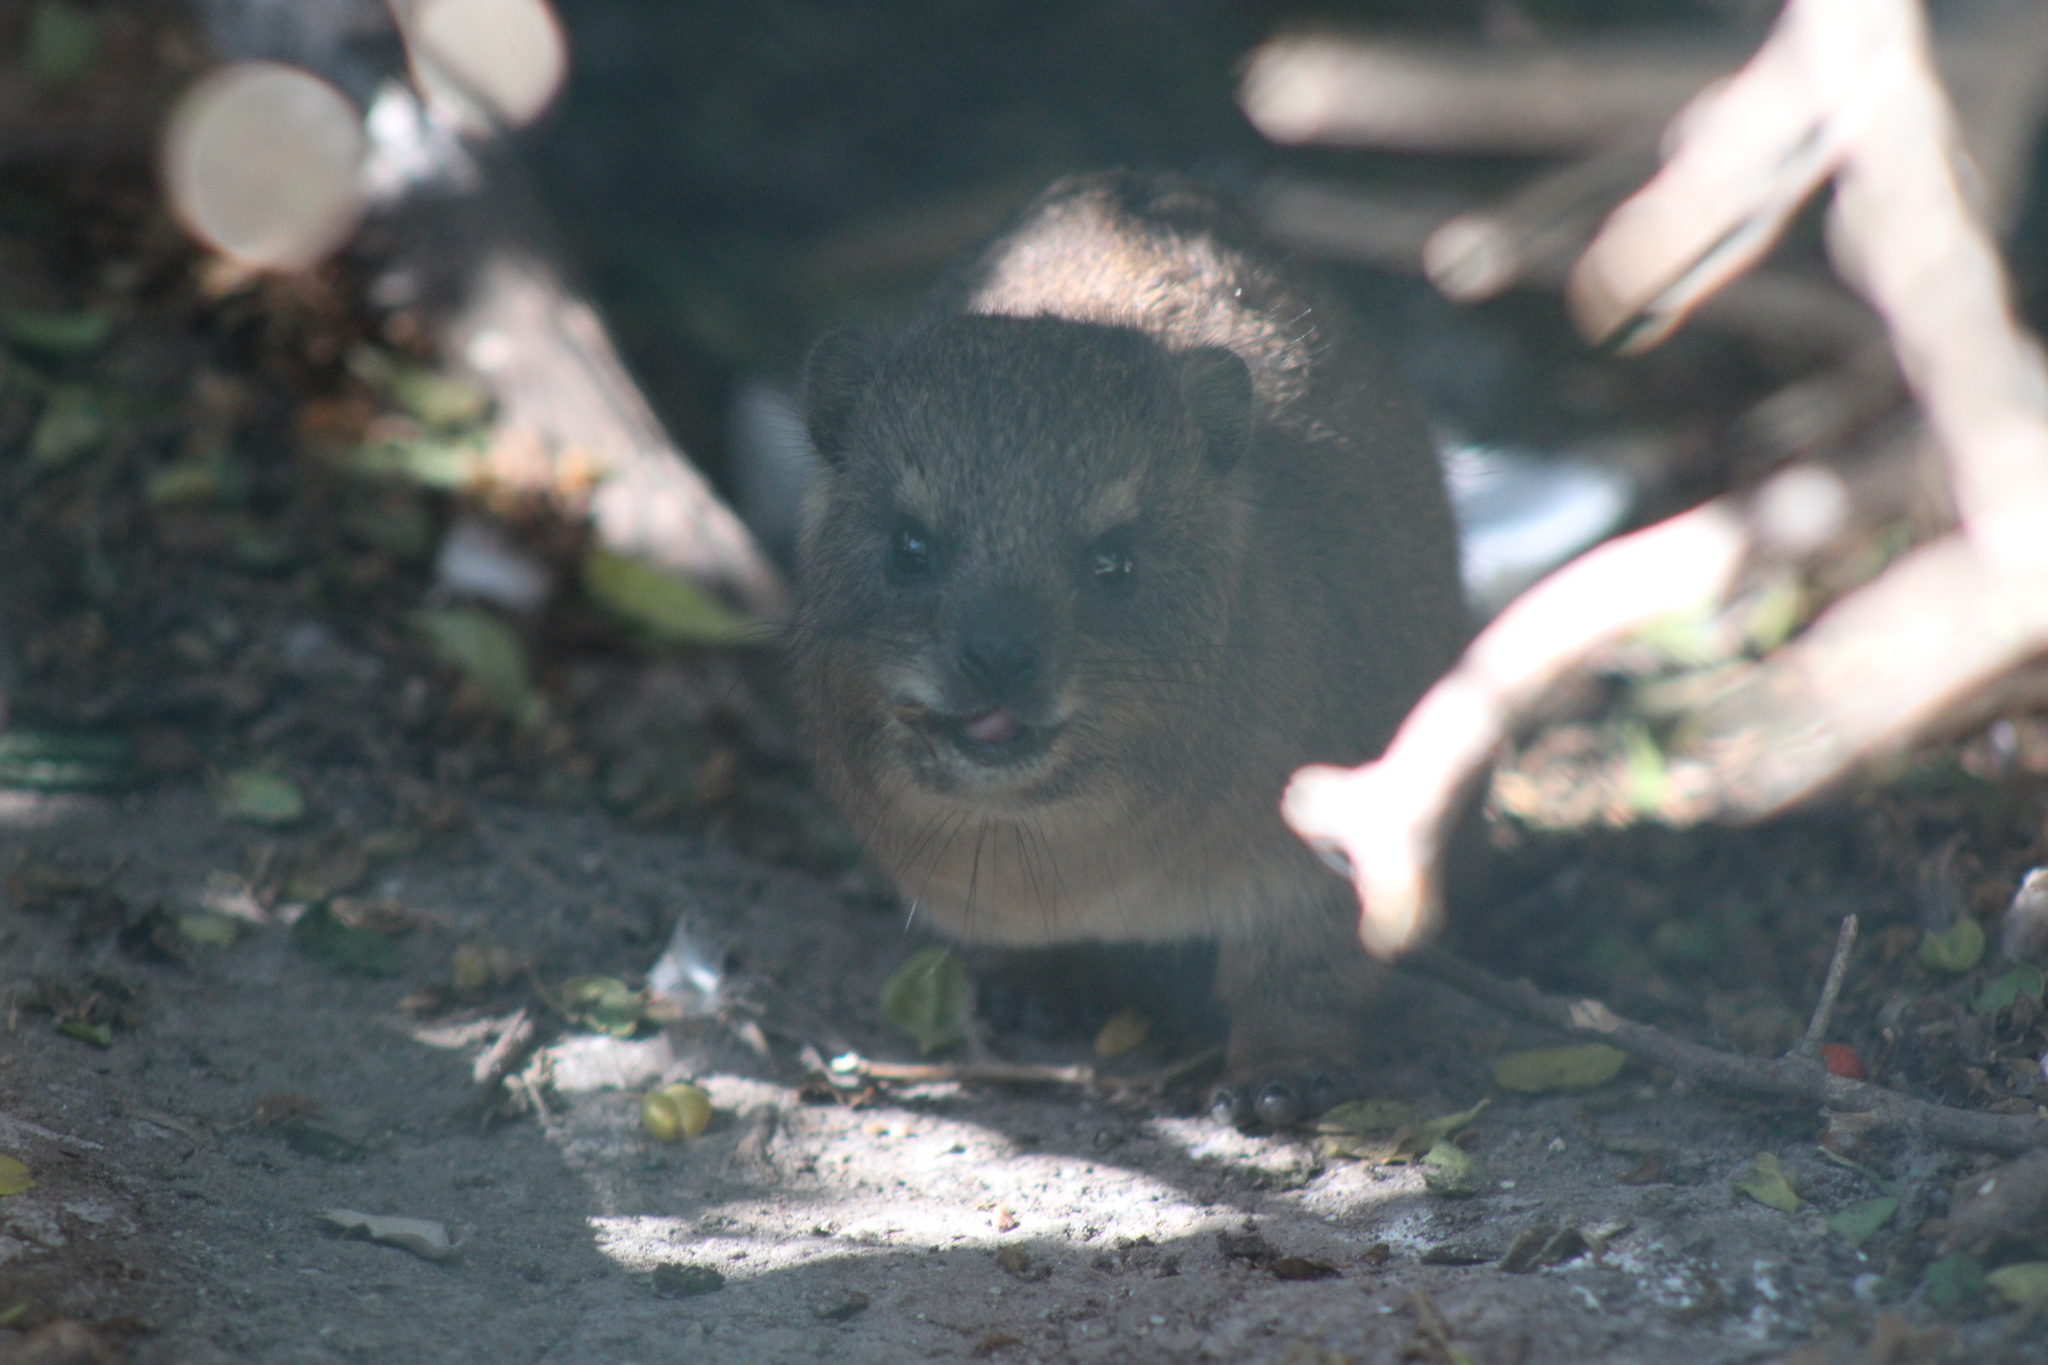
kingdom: Animalia
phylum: Chordata
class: Mammalia
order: Hyracoidea
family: Procaviidae
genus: Procavia
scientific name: Procavia capensis
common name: Rock hyrax
